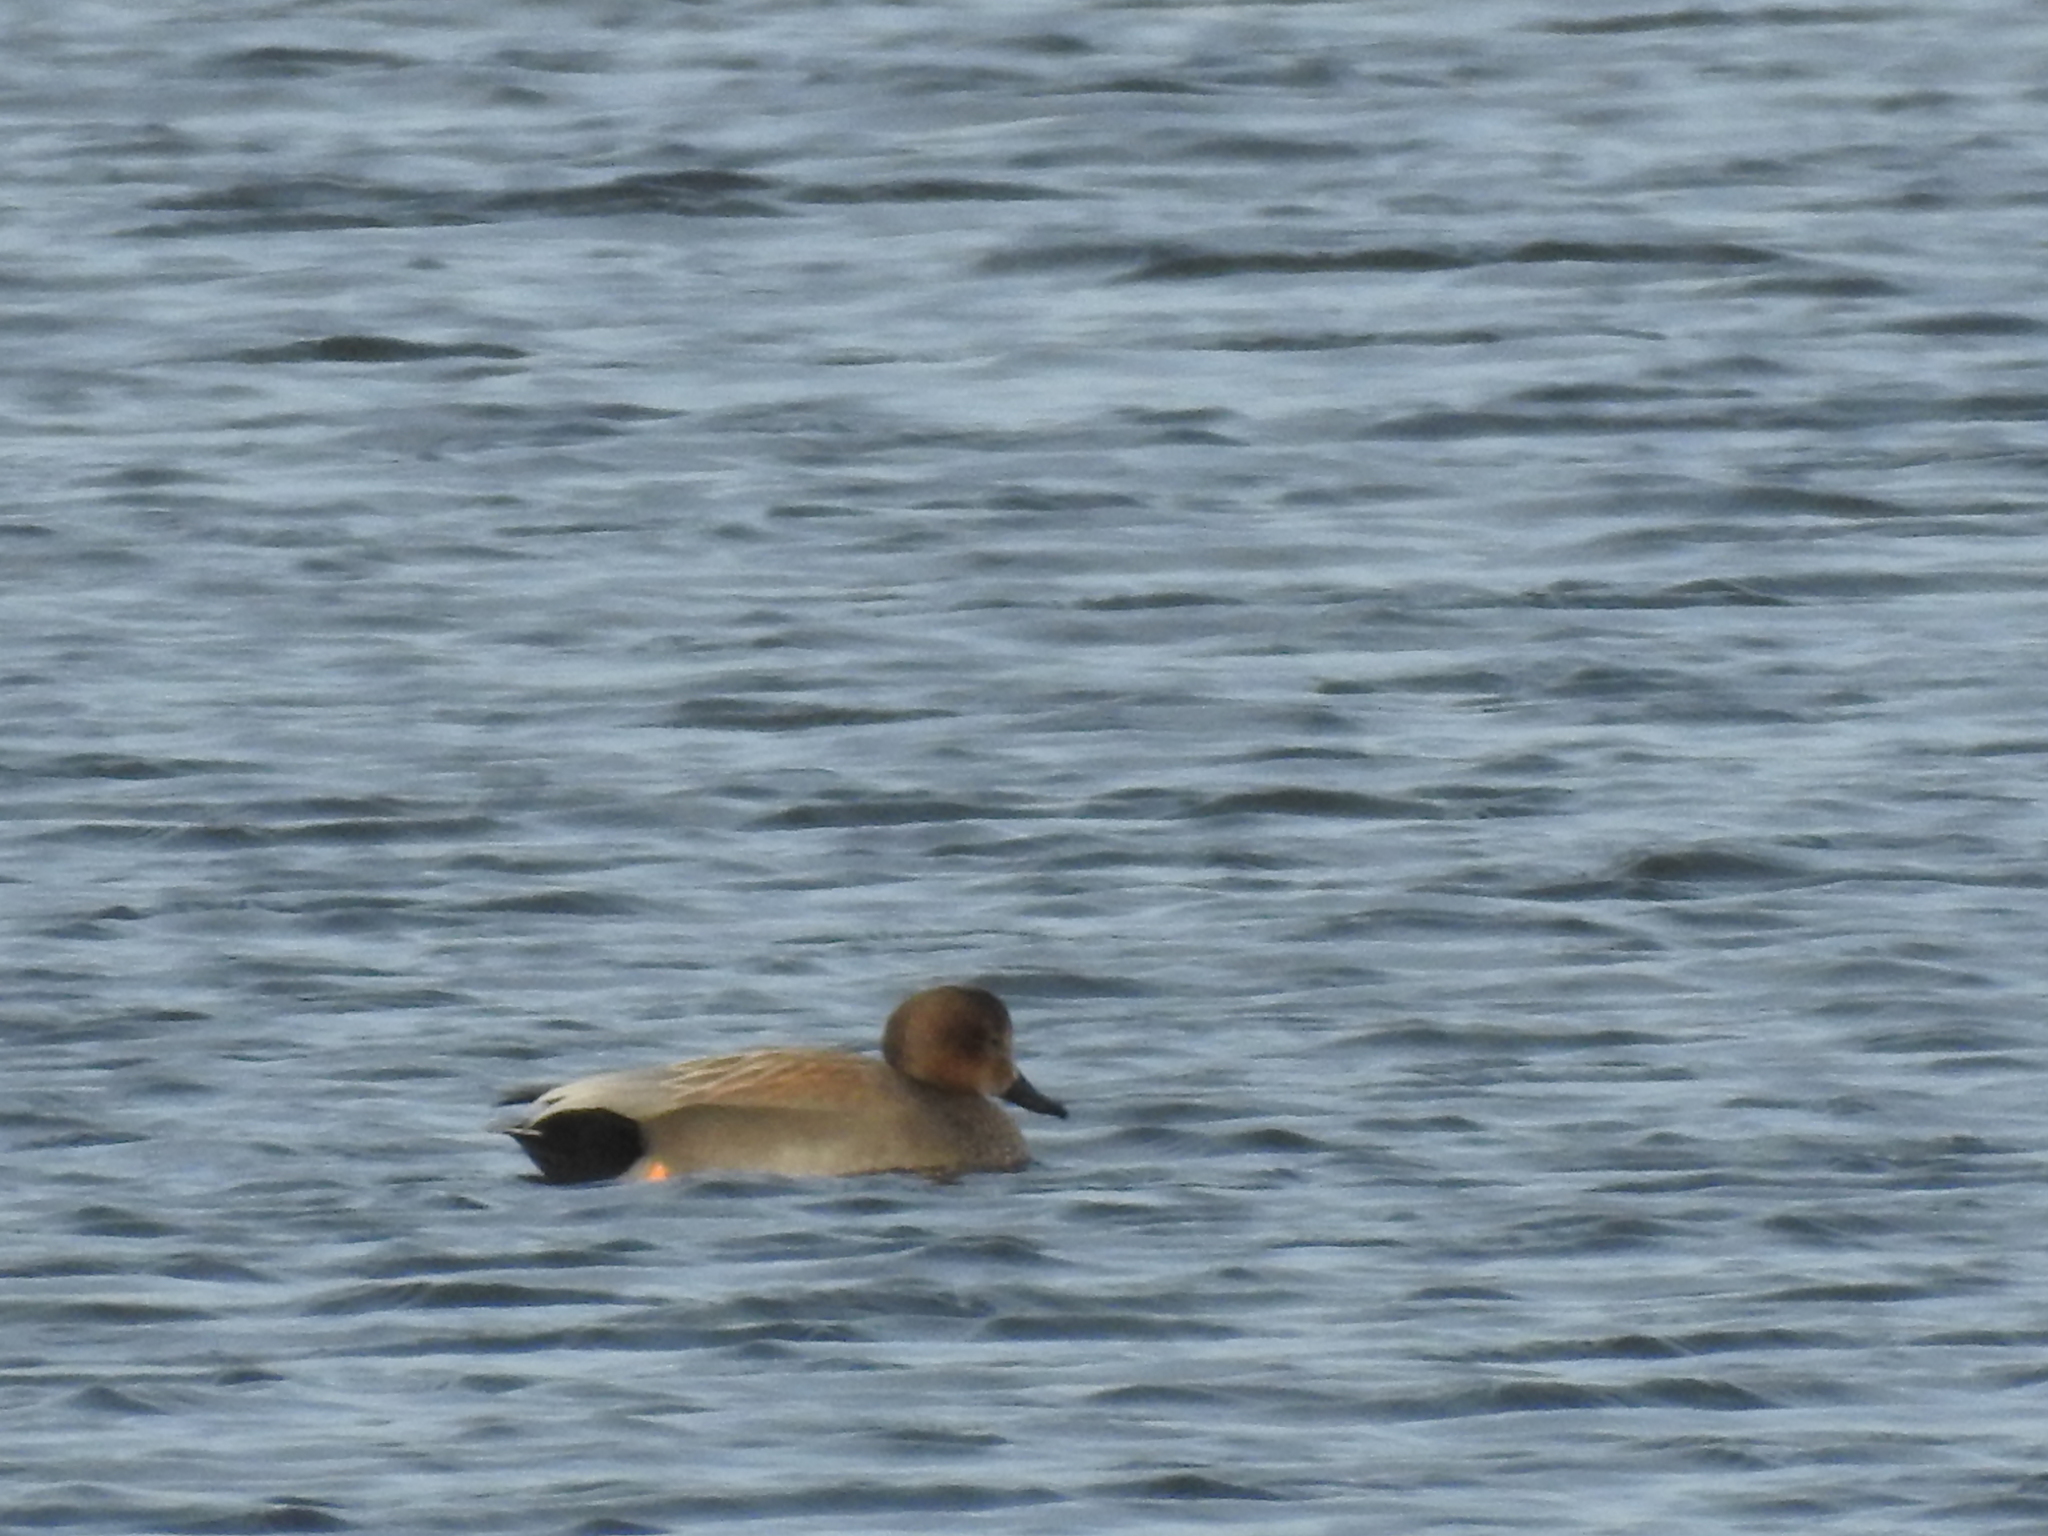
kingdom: Animalia
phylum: Chordata
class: Aves
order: Anseriformes
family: Anatidae
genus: Mareca
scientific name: Mareca strepera
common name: Gadwall
